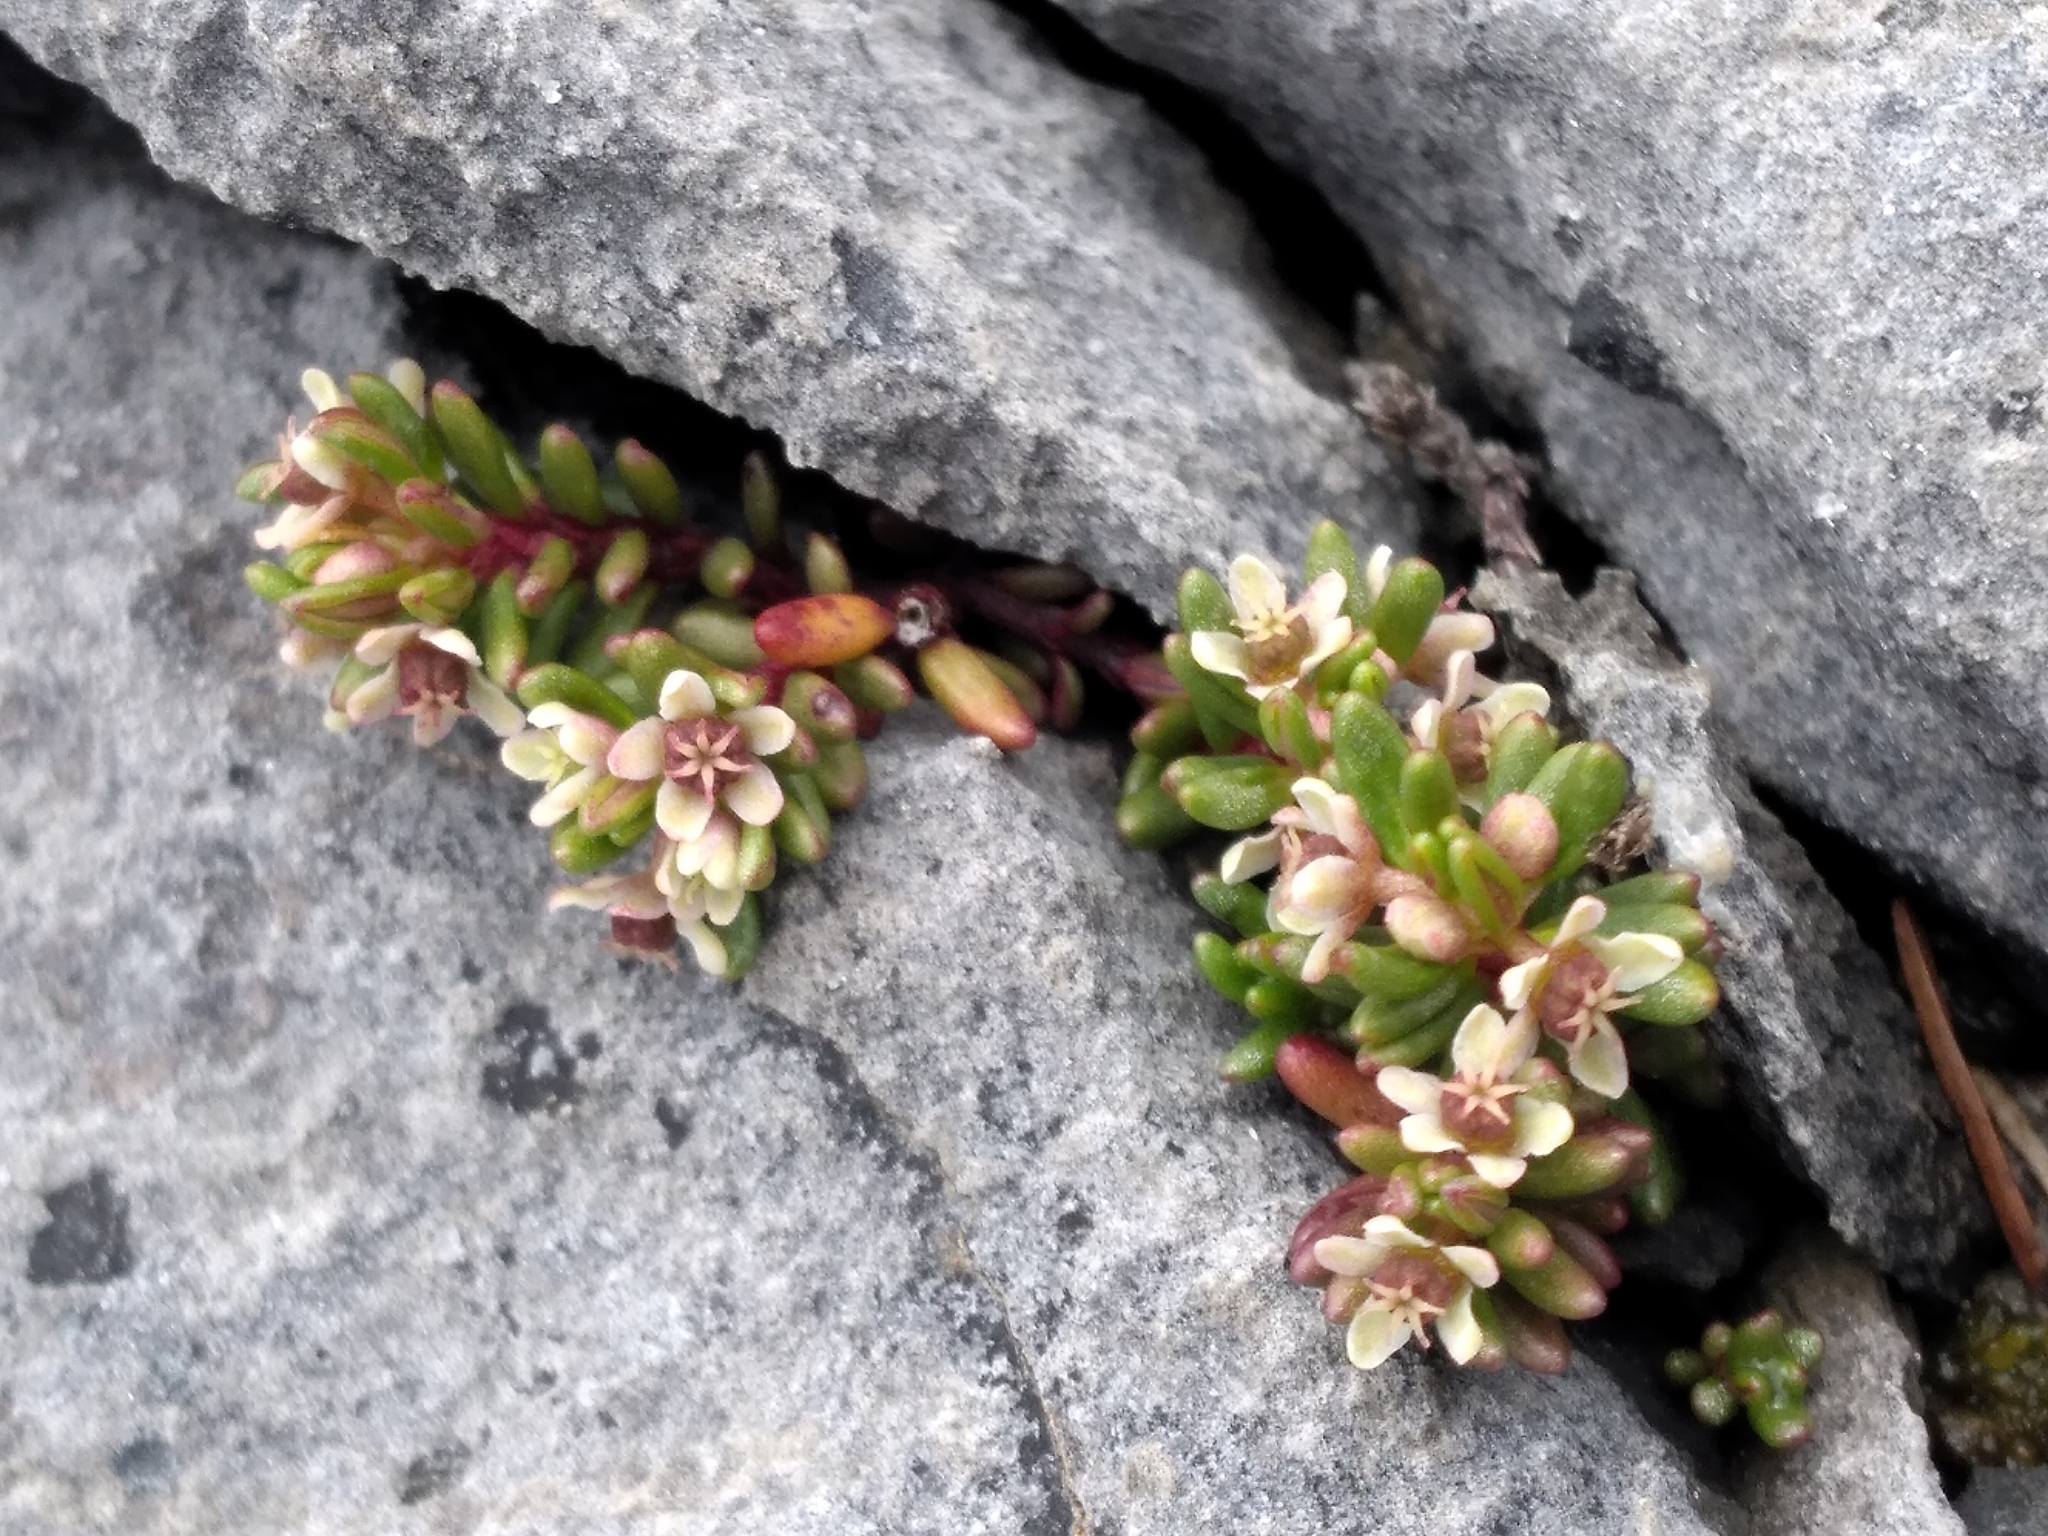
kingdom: Plantae
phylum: Tracheophyta
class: Magnoliopsida
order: Malpighiales
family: Phyllanthaceae
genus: Poranthera
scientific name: Poranthera alpina
